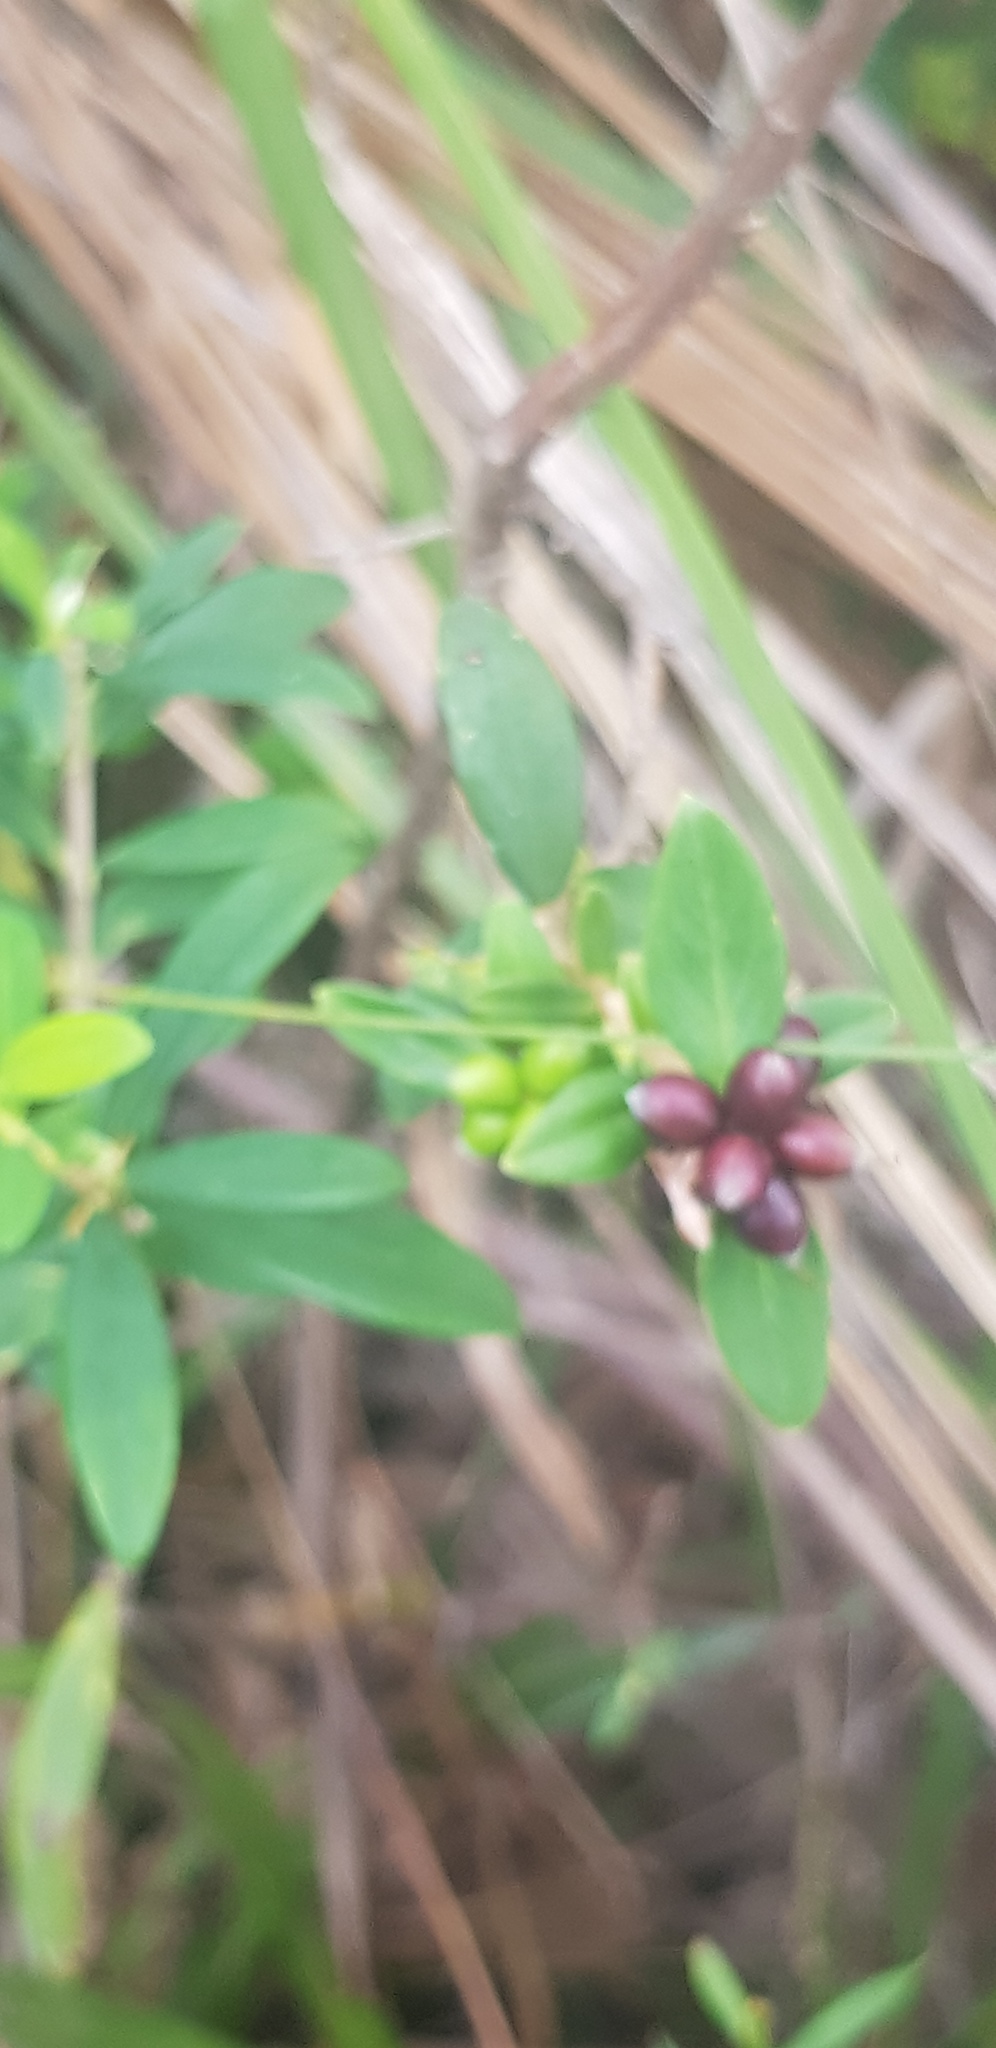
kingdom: Plantae
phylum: Tracheophyta
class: Magnoliopsida
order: Malvales
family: Thymelaeaceae
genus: Pimelea
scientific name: Pimelea drupacea
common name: Cherry riceflower
